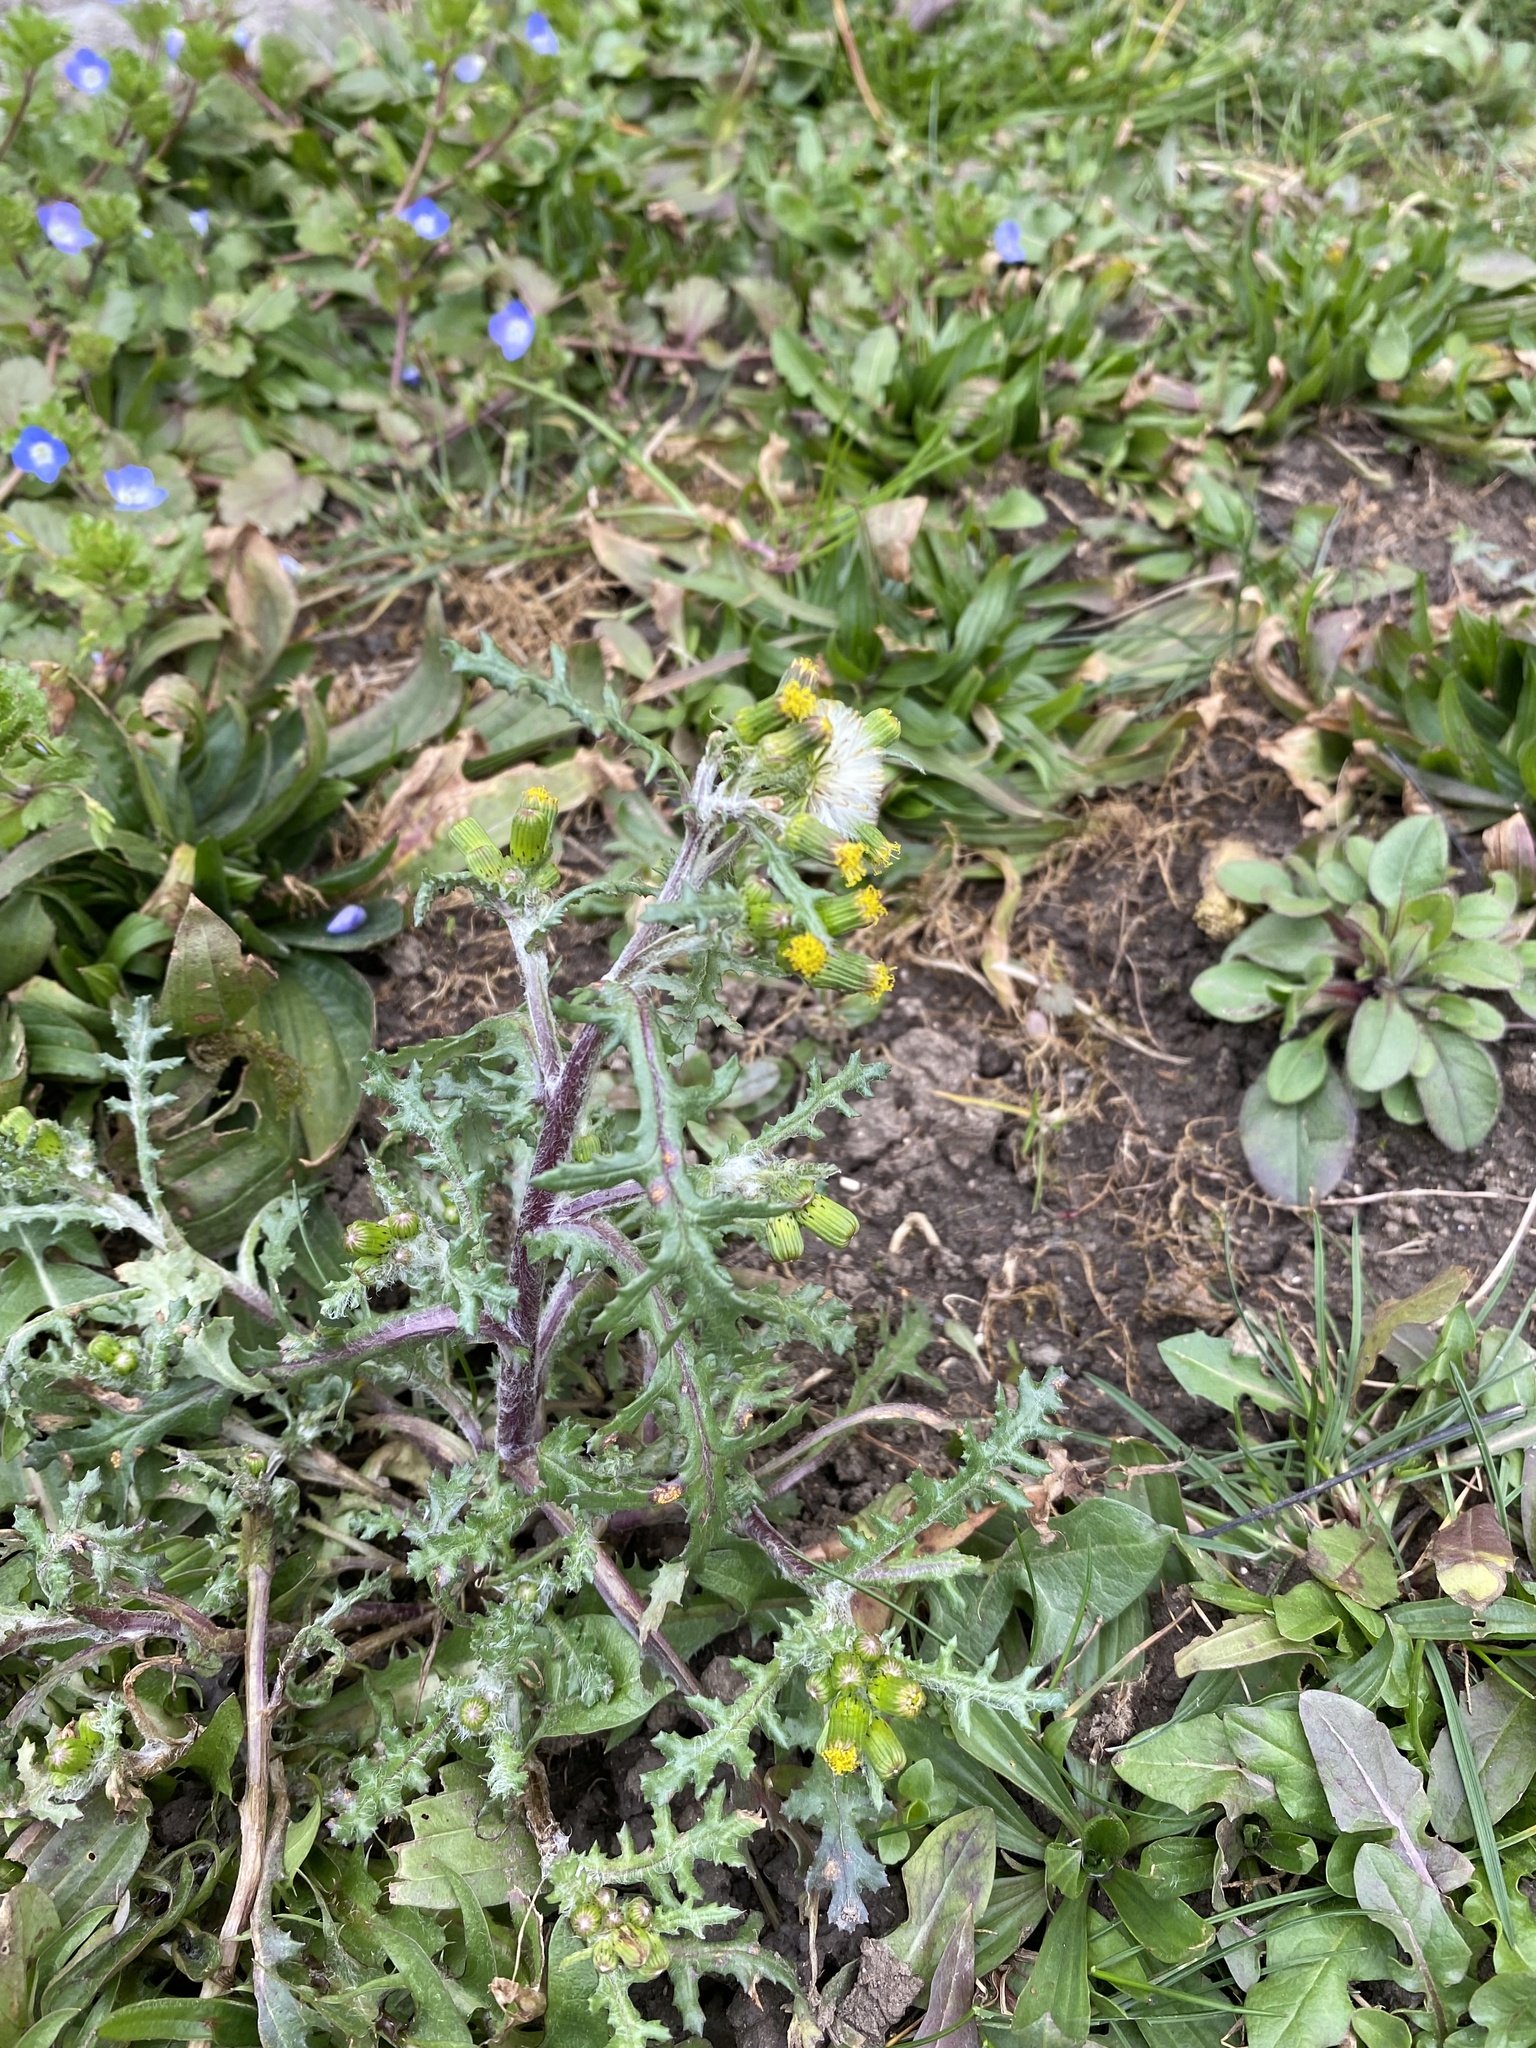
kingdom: Plantae
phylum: Tracheophyta
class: Magnoliopsida
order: Asterales
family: Asteraceae
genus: Senecio
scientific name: Senecio vulgaris
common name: Old-man-in-the-spring
